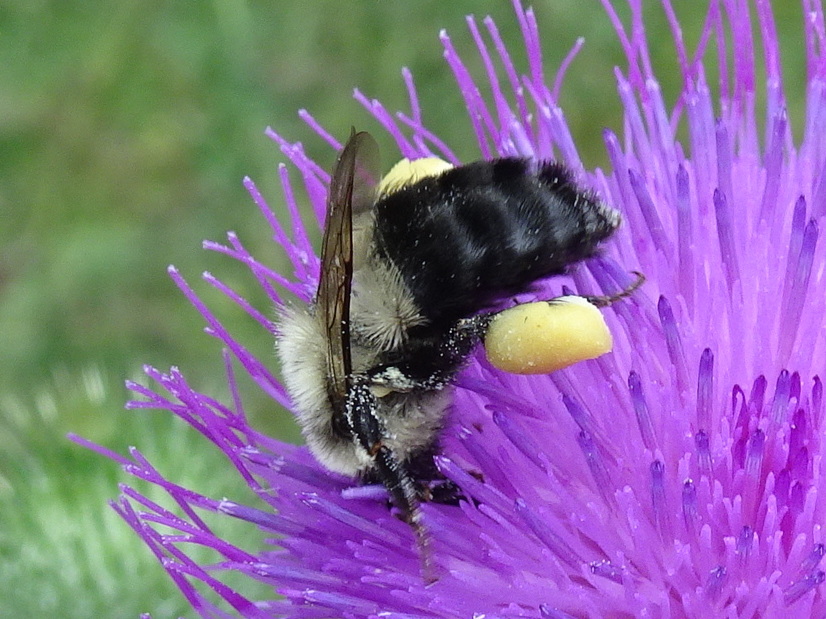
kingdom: Animalia
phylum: Arthropoda
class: Insecta
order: Hymenoptera
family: Apidae
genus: Bombus
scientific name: Bombus impatiens
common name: Common eastern bumble bee
